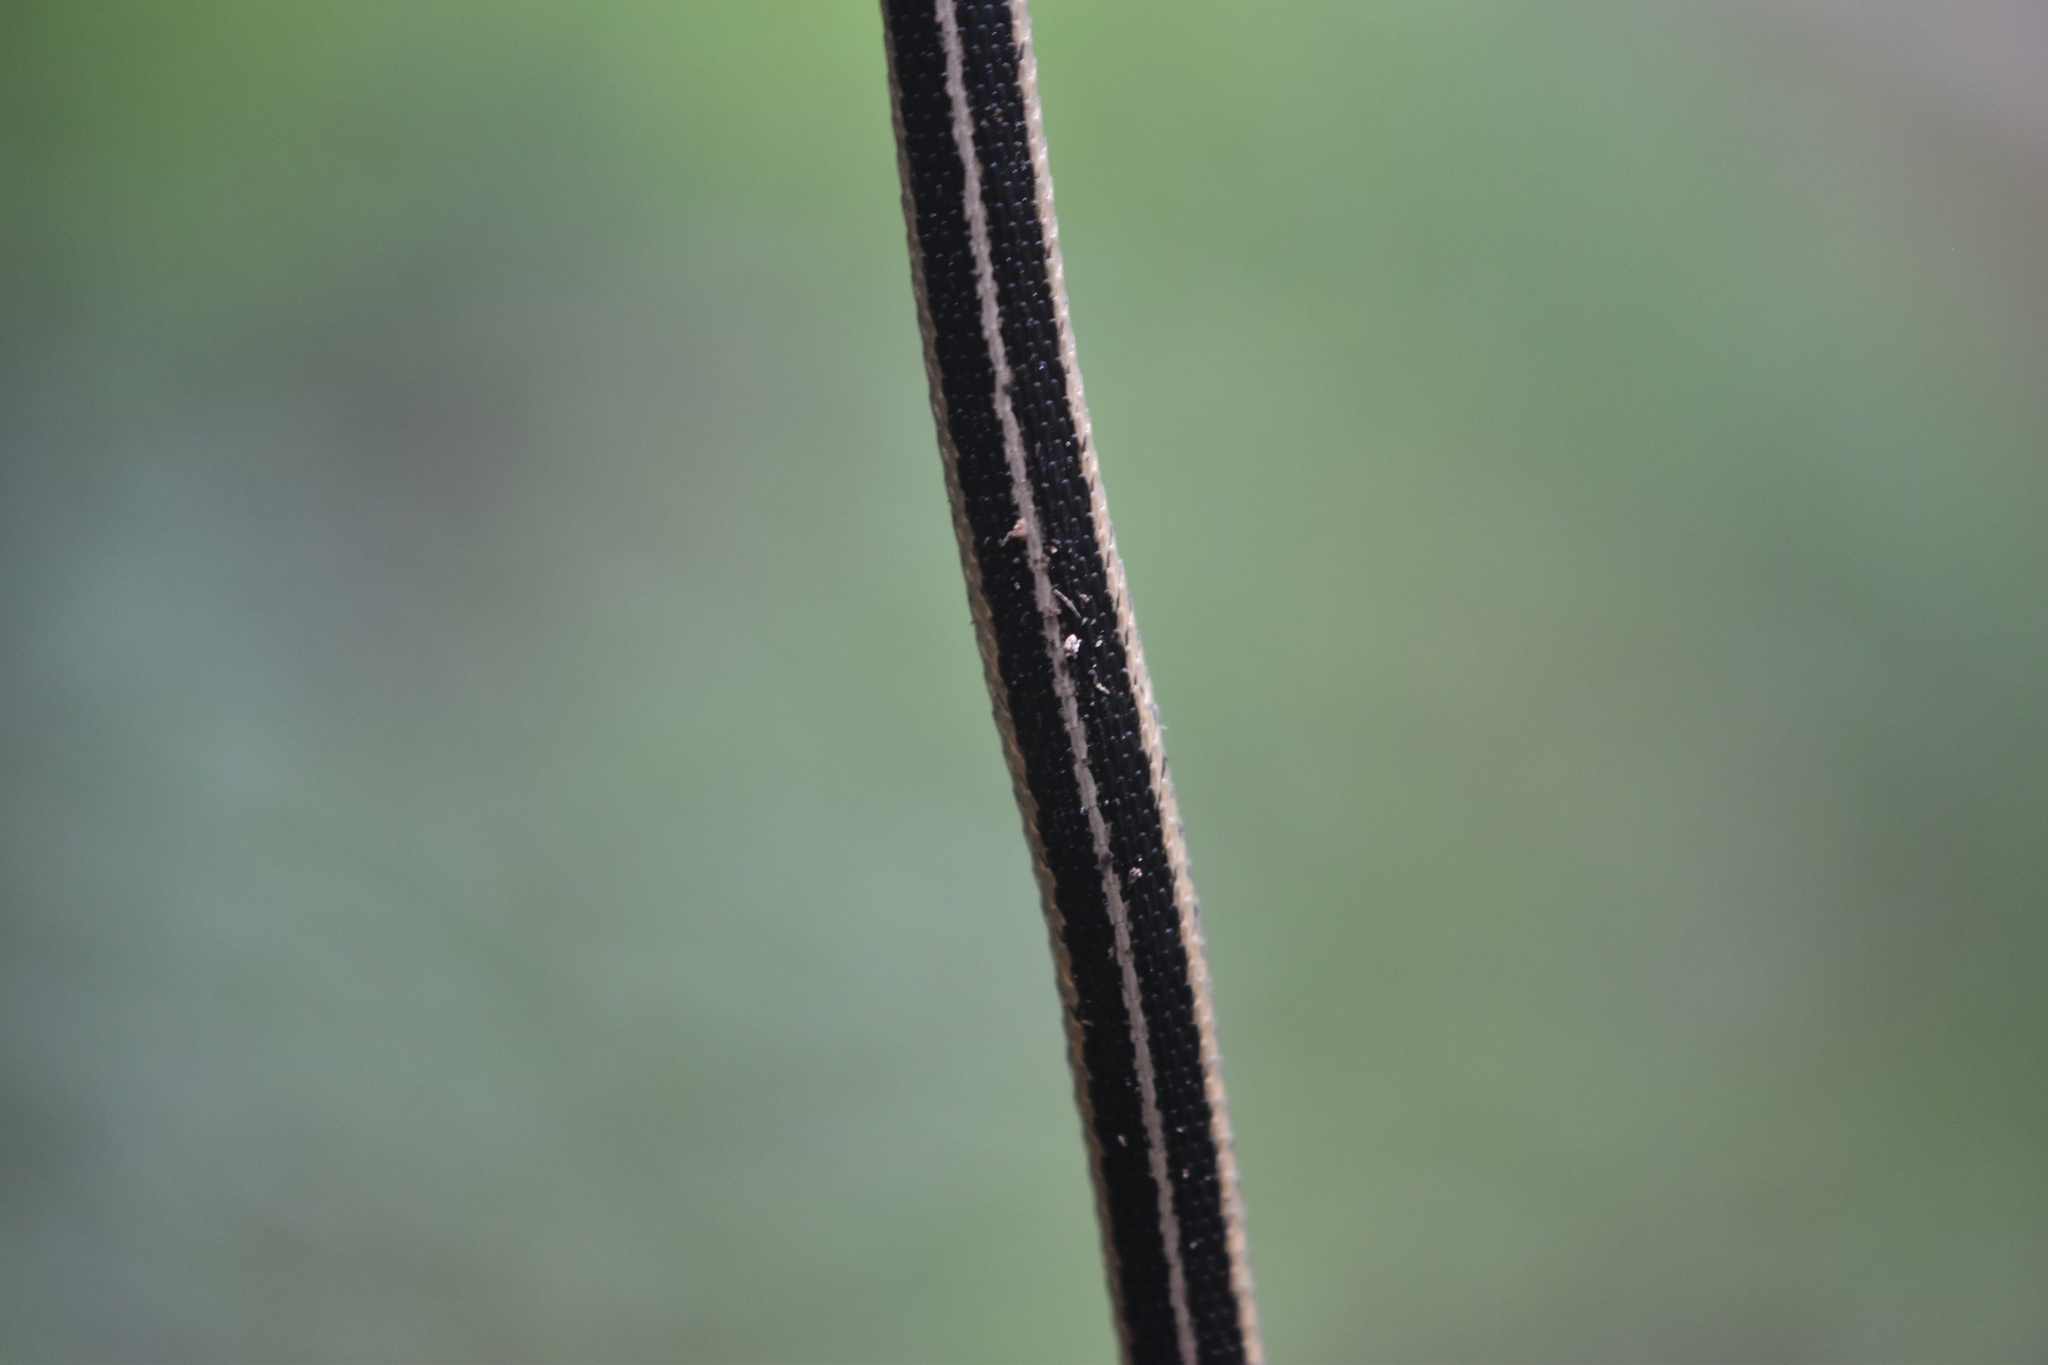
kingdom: Animalia
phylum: Chordata
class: Squamata
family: Colubridae
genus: Thamnophis
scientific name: Thamnophis sirtalis
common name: Common garter snake
